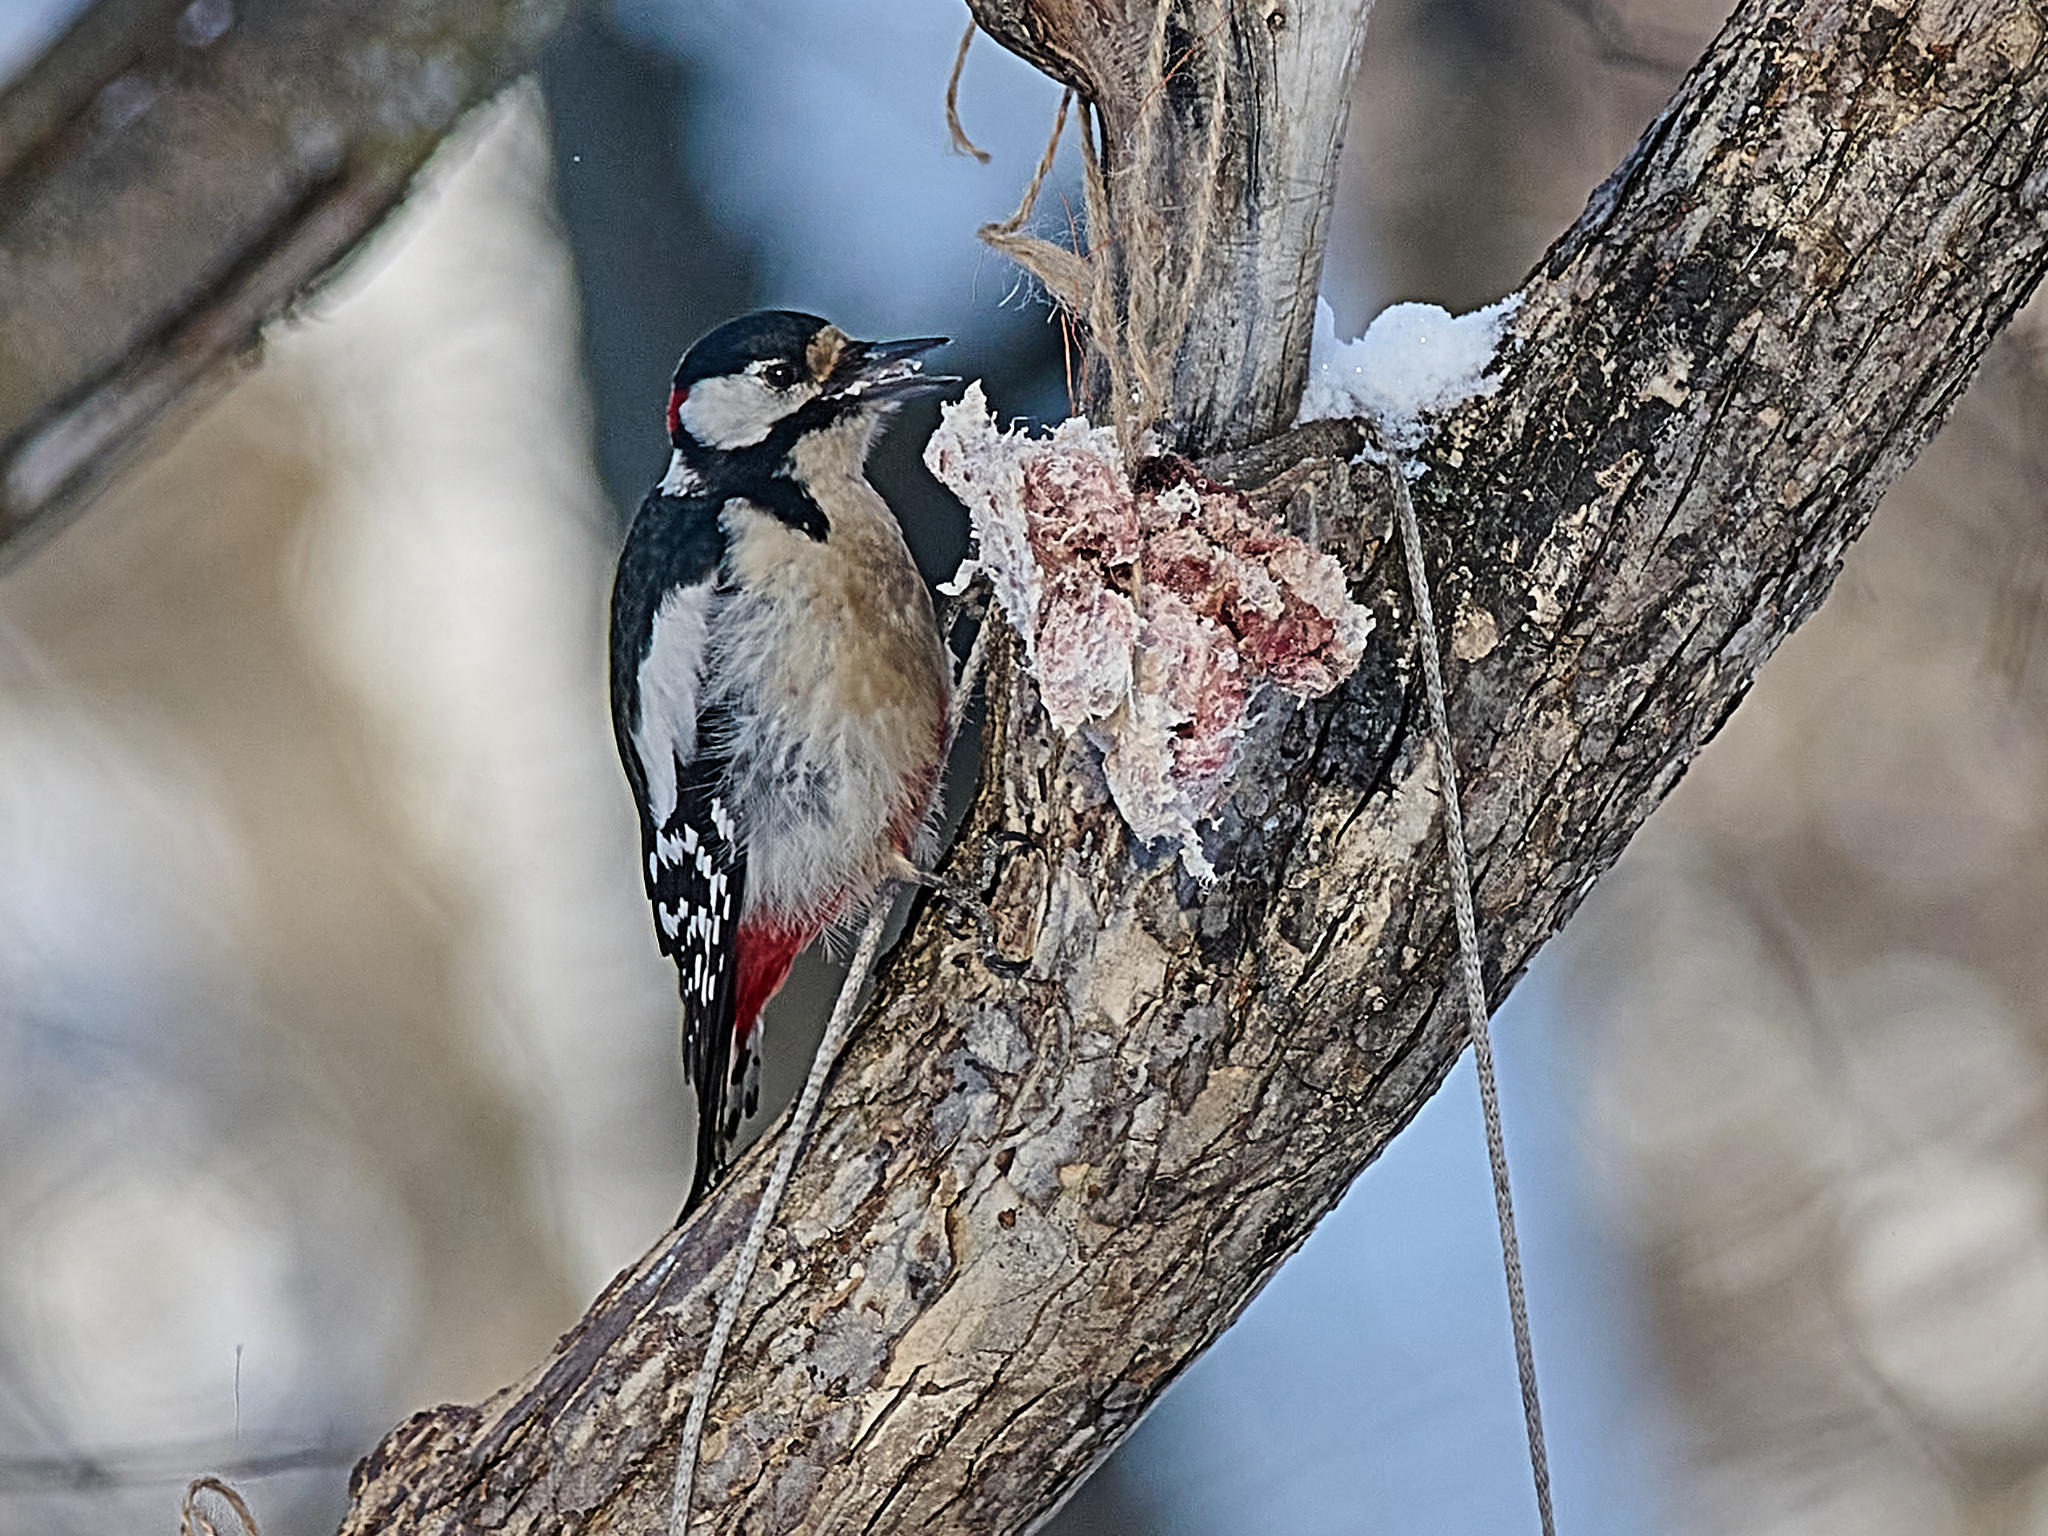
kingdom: Animalia
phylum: Chordata
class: Aves
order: Piciformes
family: Picidae
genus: Dendrocopos
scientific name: Dendrocopos major
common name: Great spotted woodpecker
